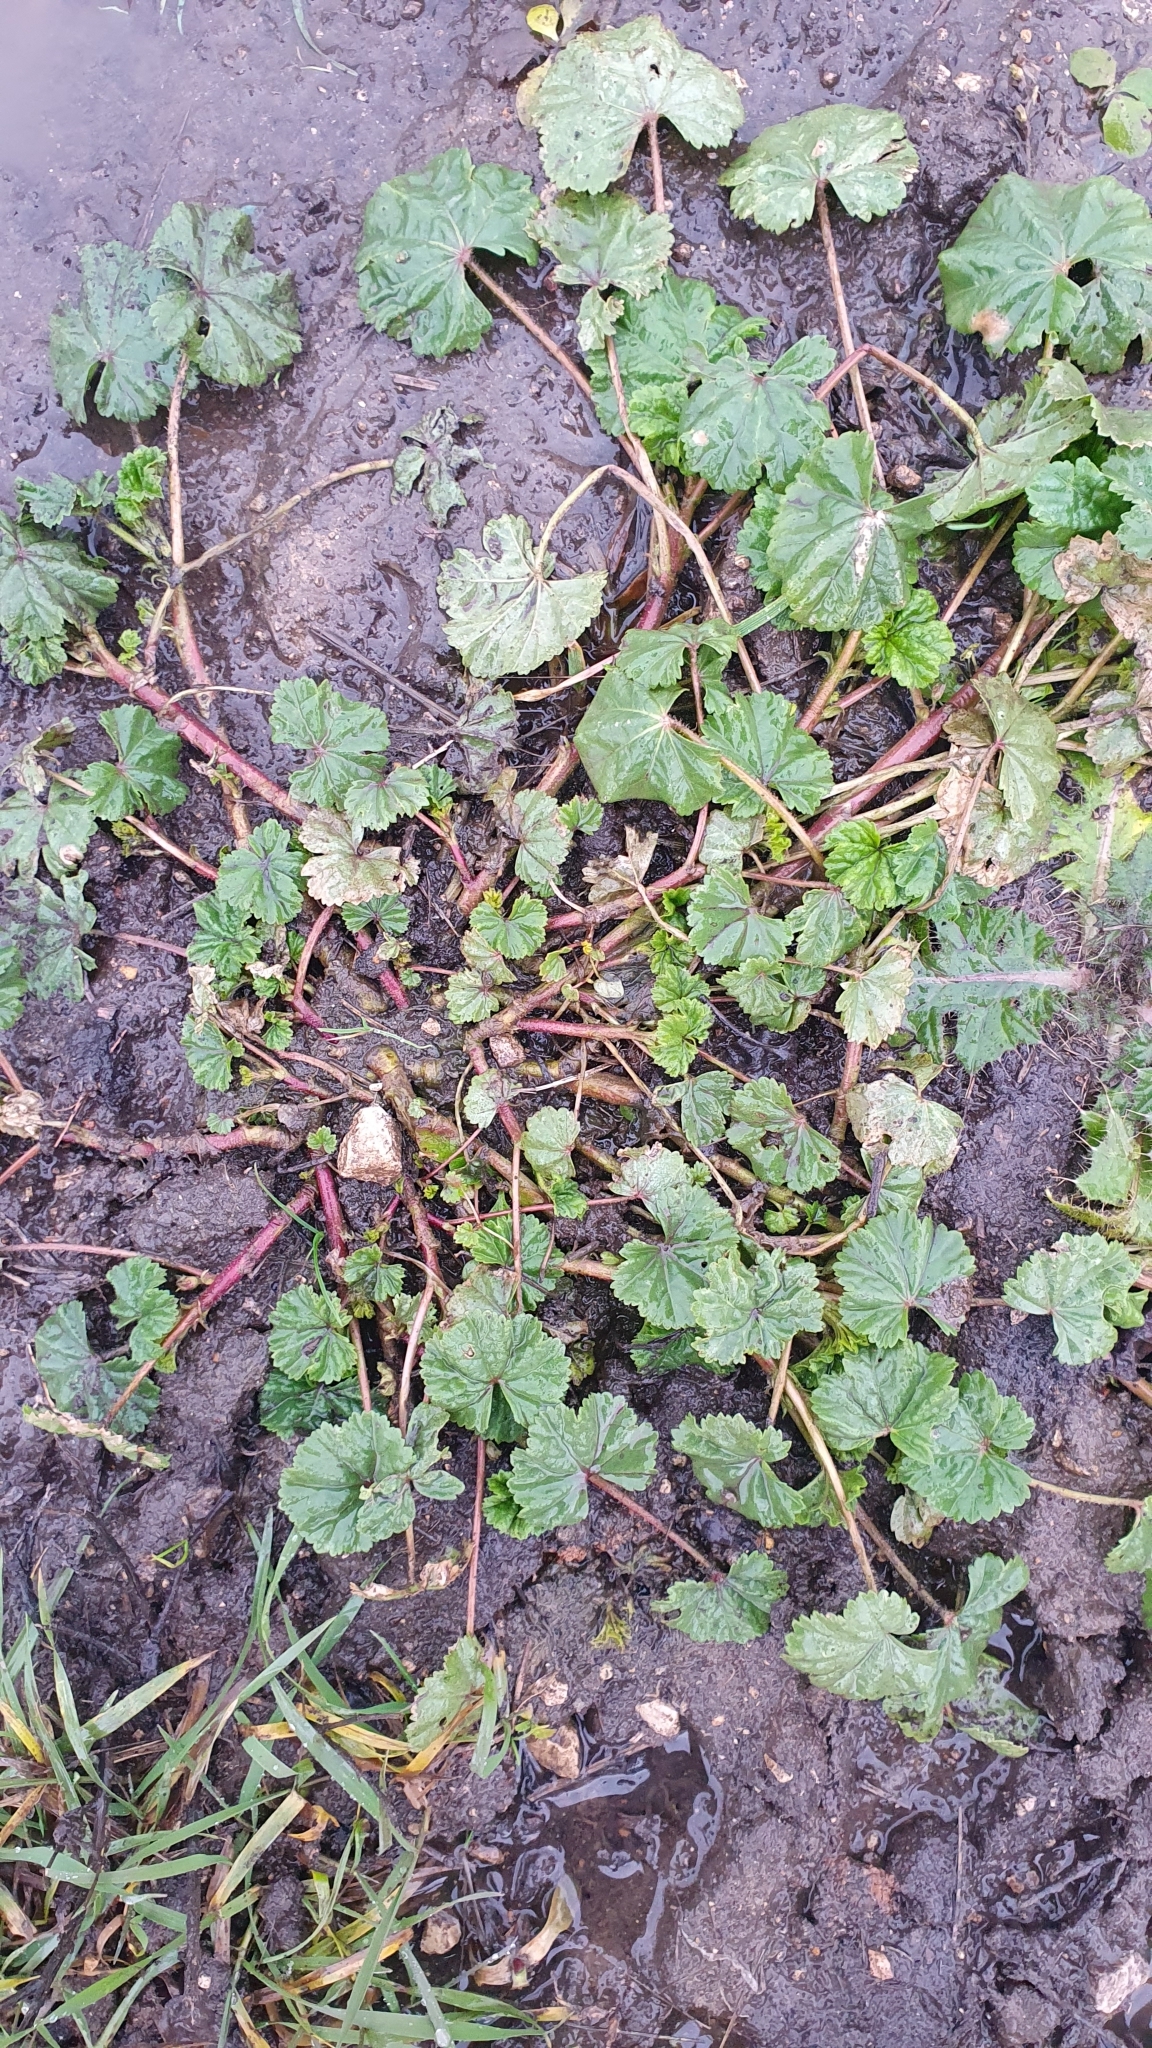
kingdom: Plantae
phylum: Tracheophyta
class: Magnoliopsida
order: Malvales
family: Malvaceae
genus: Malva
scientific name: Malva pusilla
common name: Small mallow
